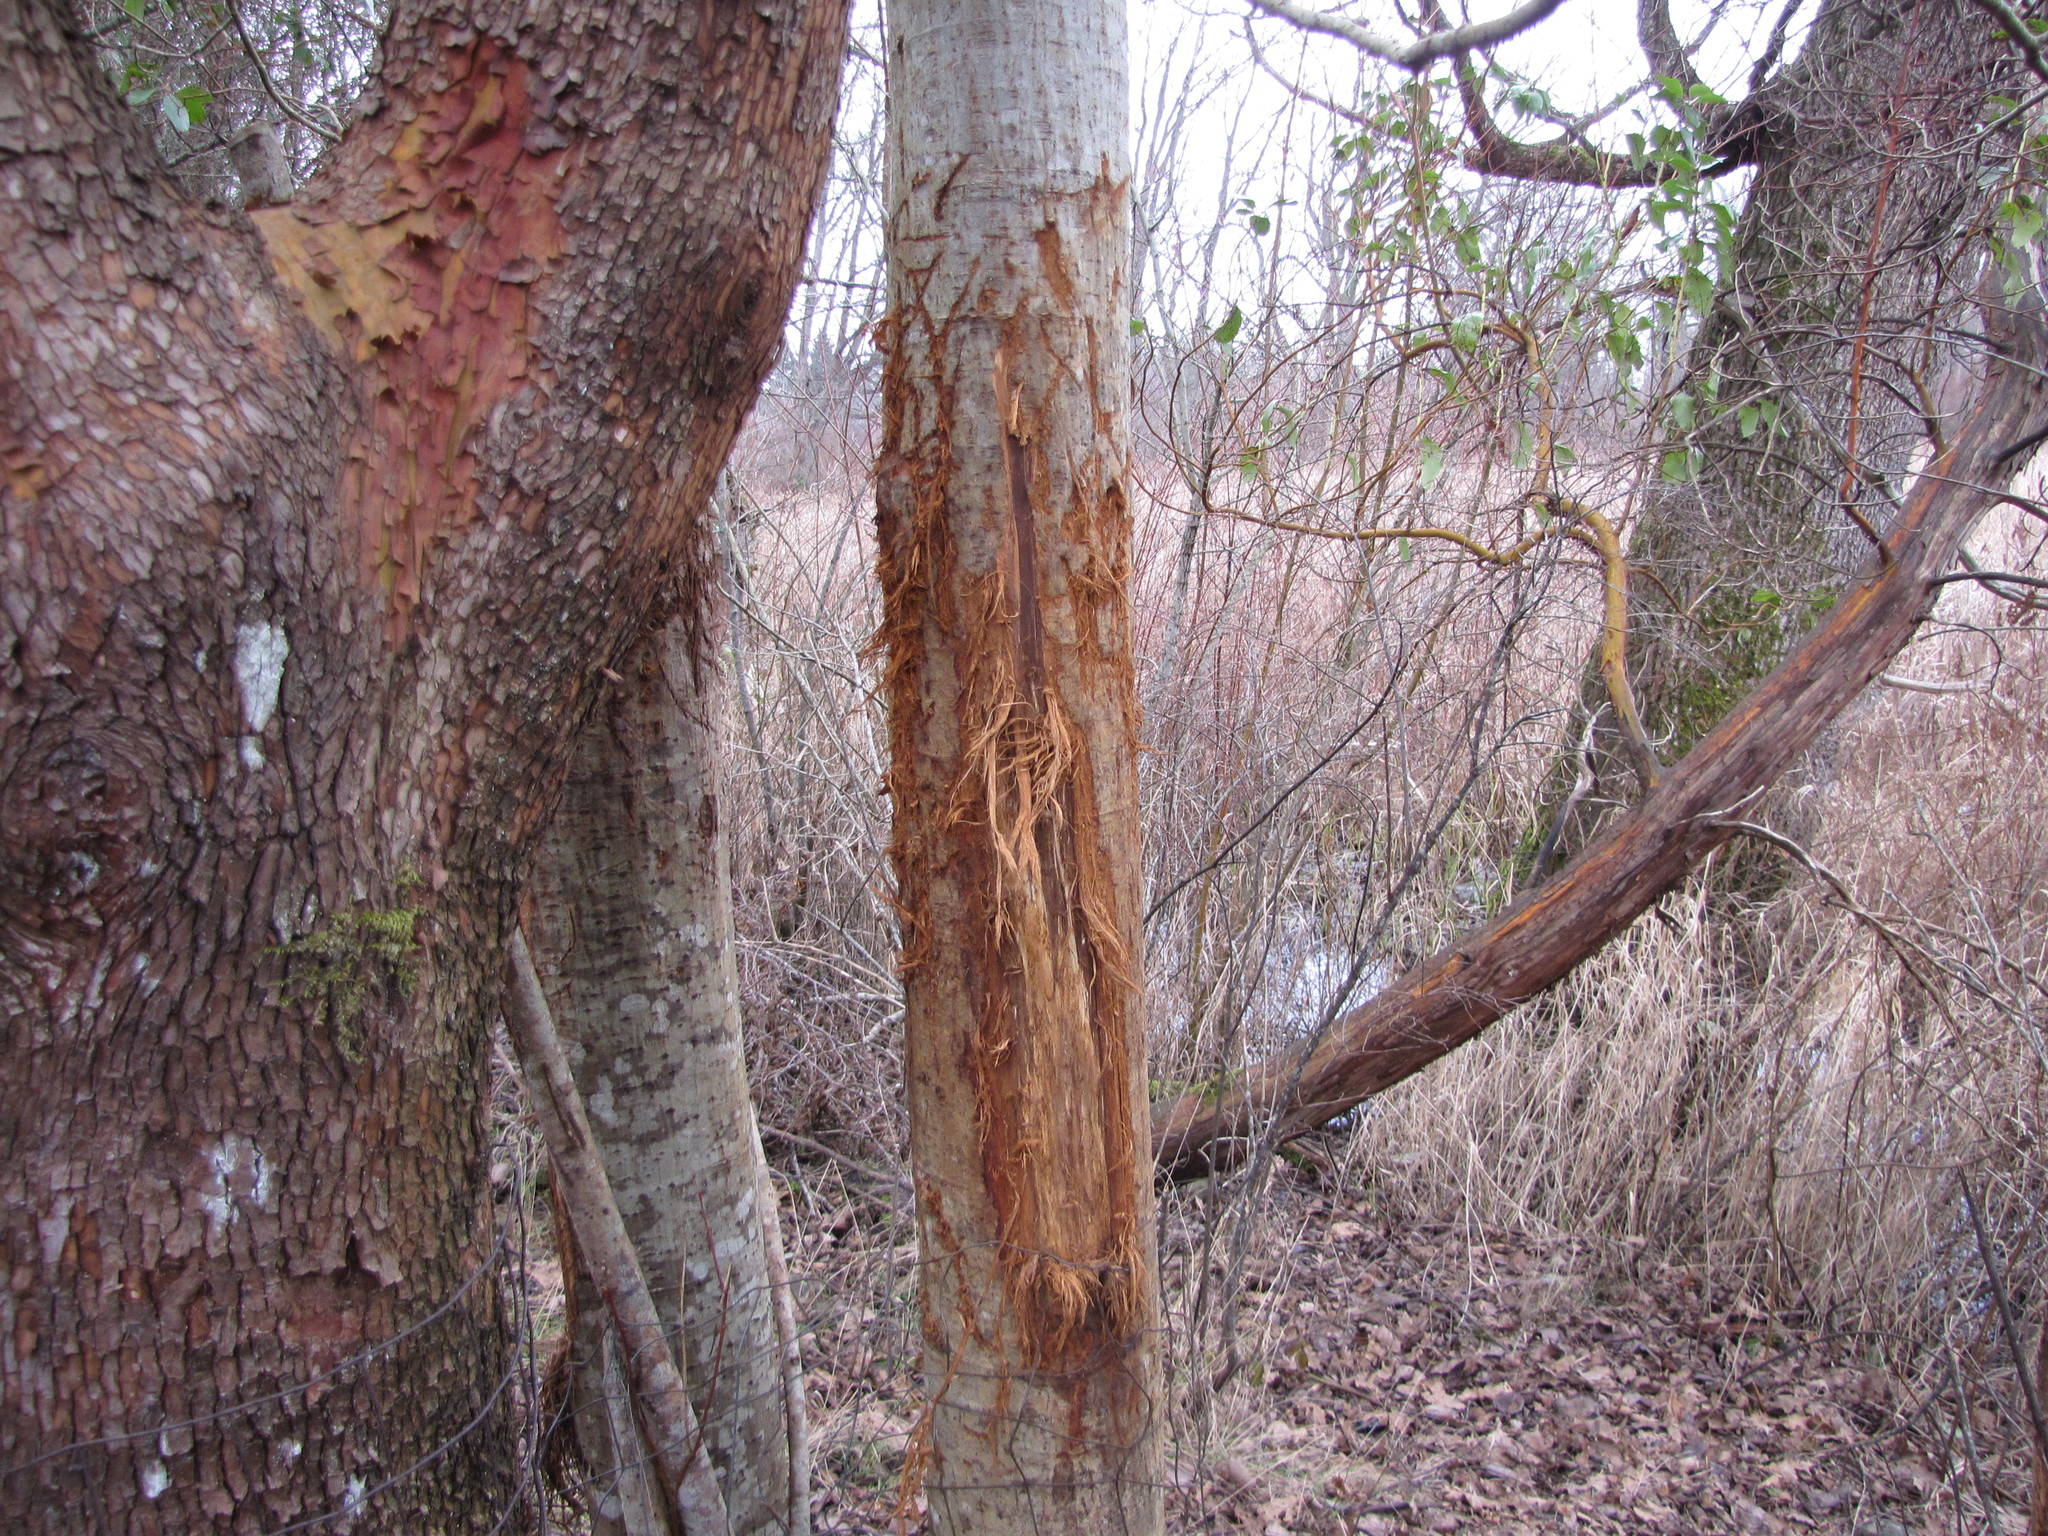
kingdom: Plantae
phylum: Tracheophyta
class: Magnoliopsida
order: Ericales
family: Ericaceae
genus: Arbutus
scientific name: Arbutus menziesii
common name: Pacific madrone
